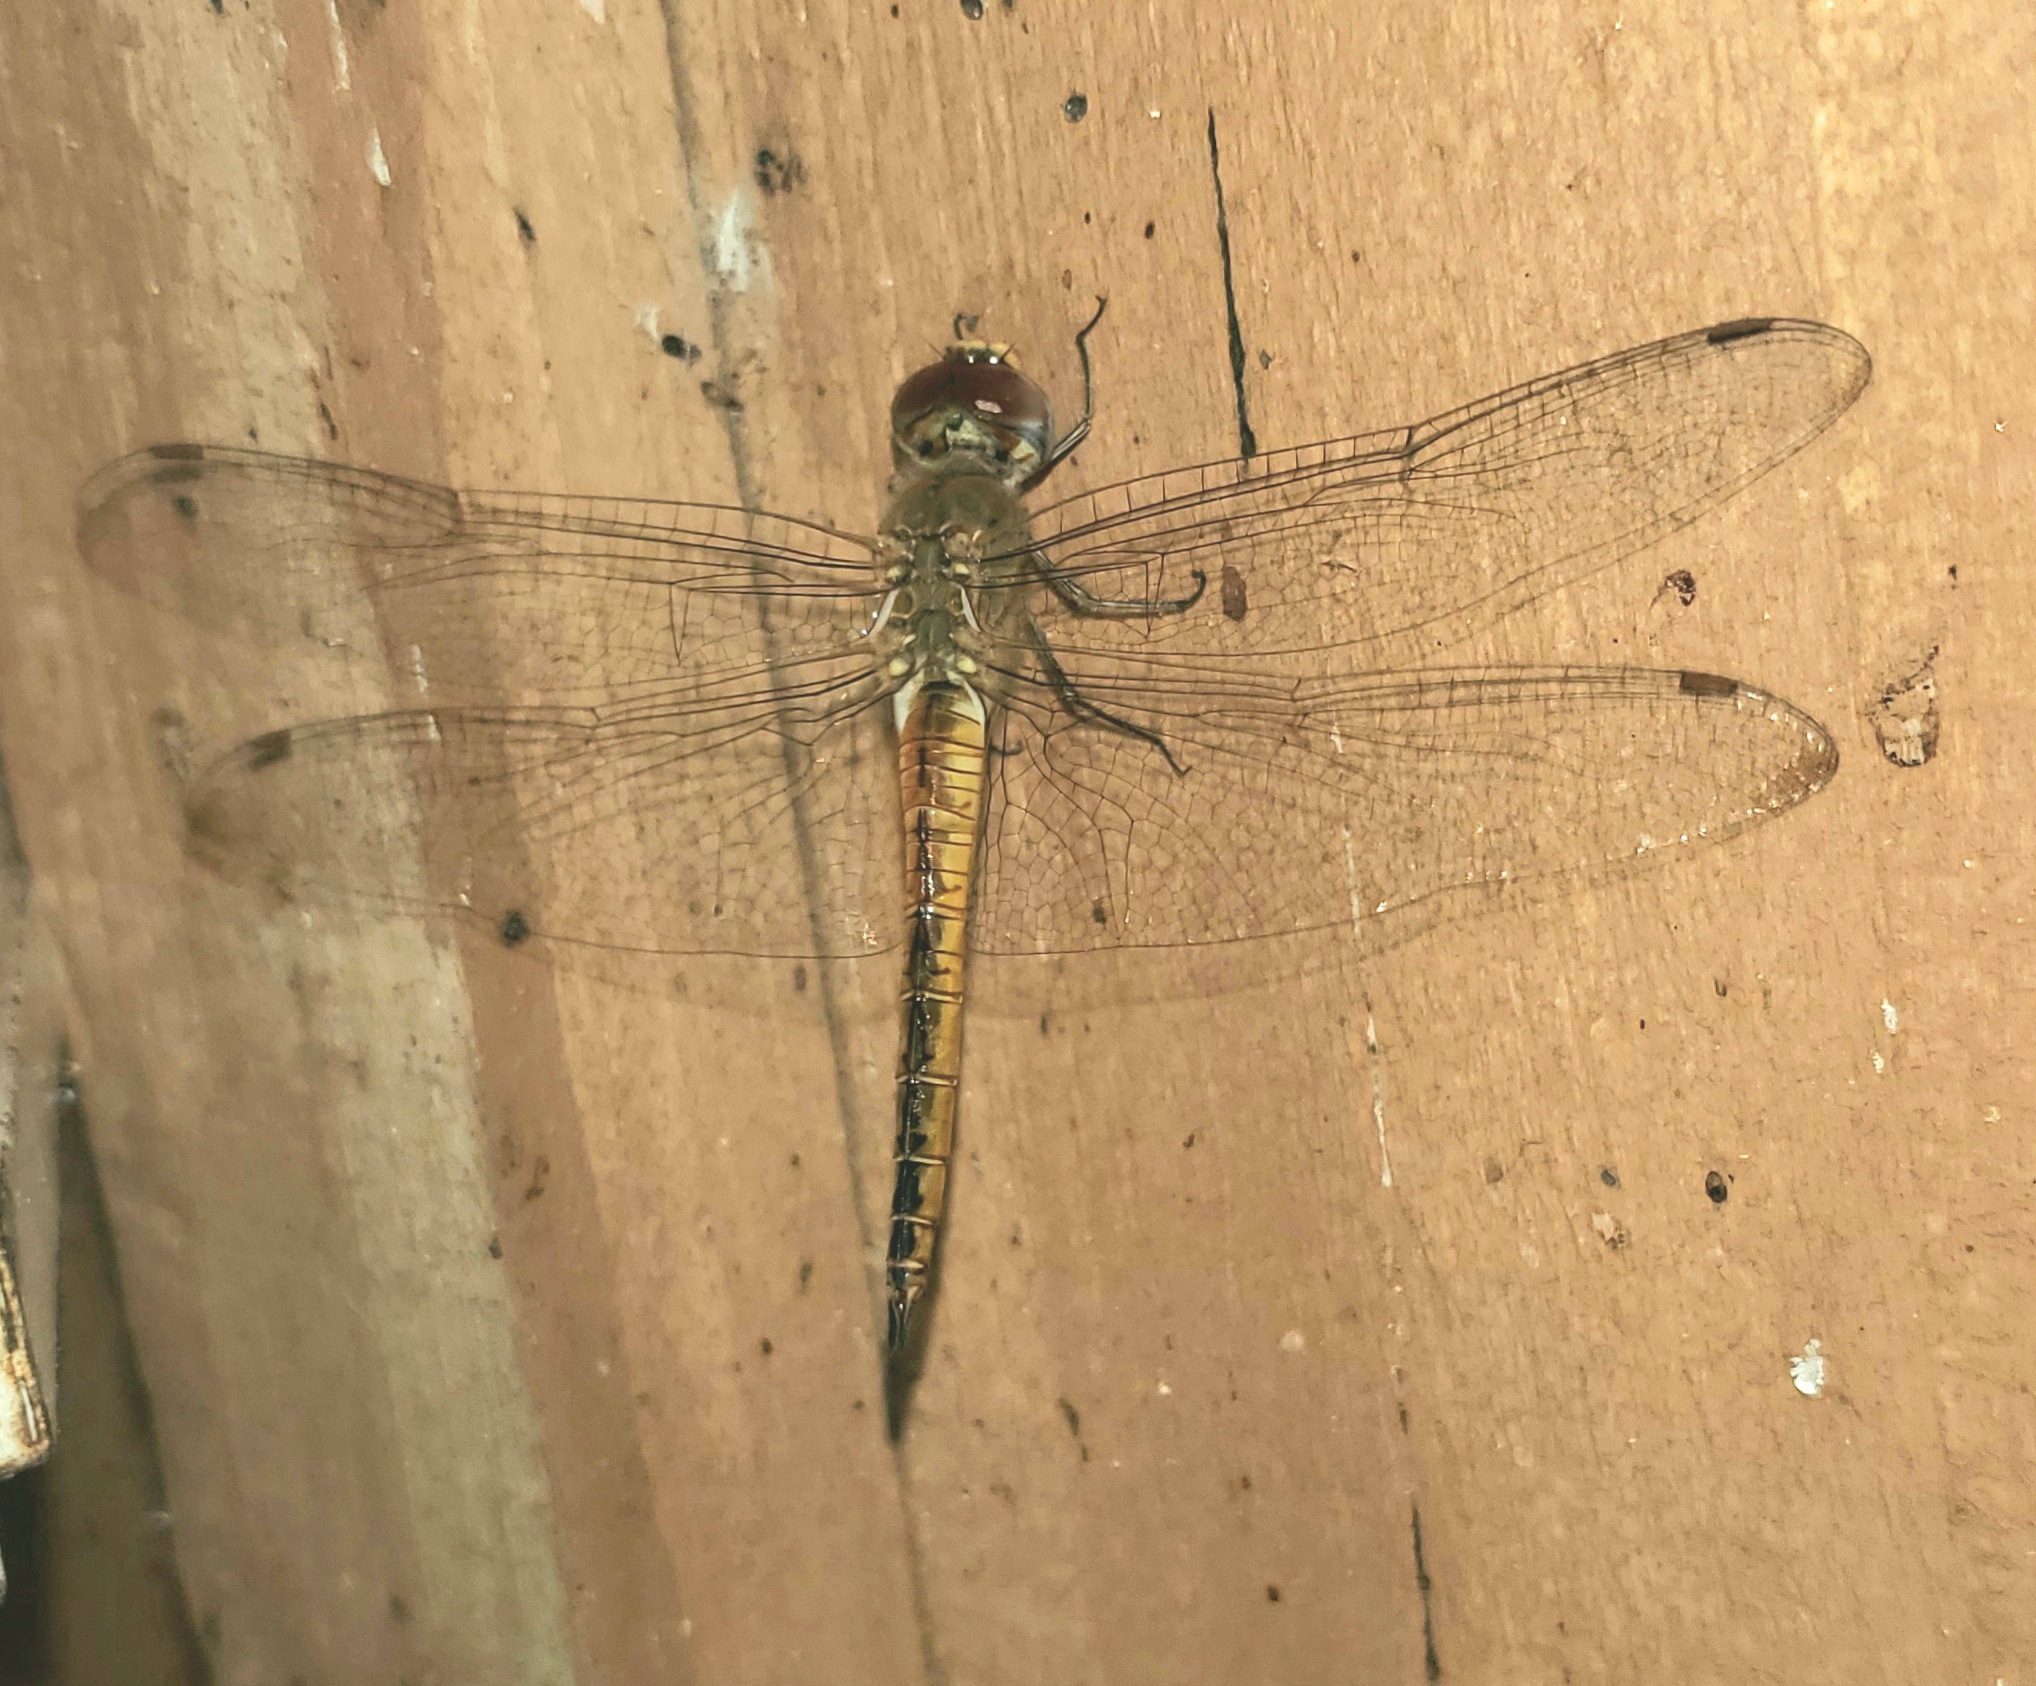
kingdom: Animalia
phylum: Arthropoda
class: Insecta
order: Odonata
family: Libellulidae
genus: Pantala
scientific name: Pantala flavescens
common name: Wandering glider
